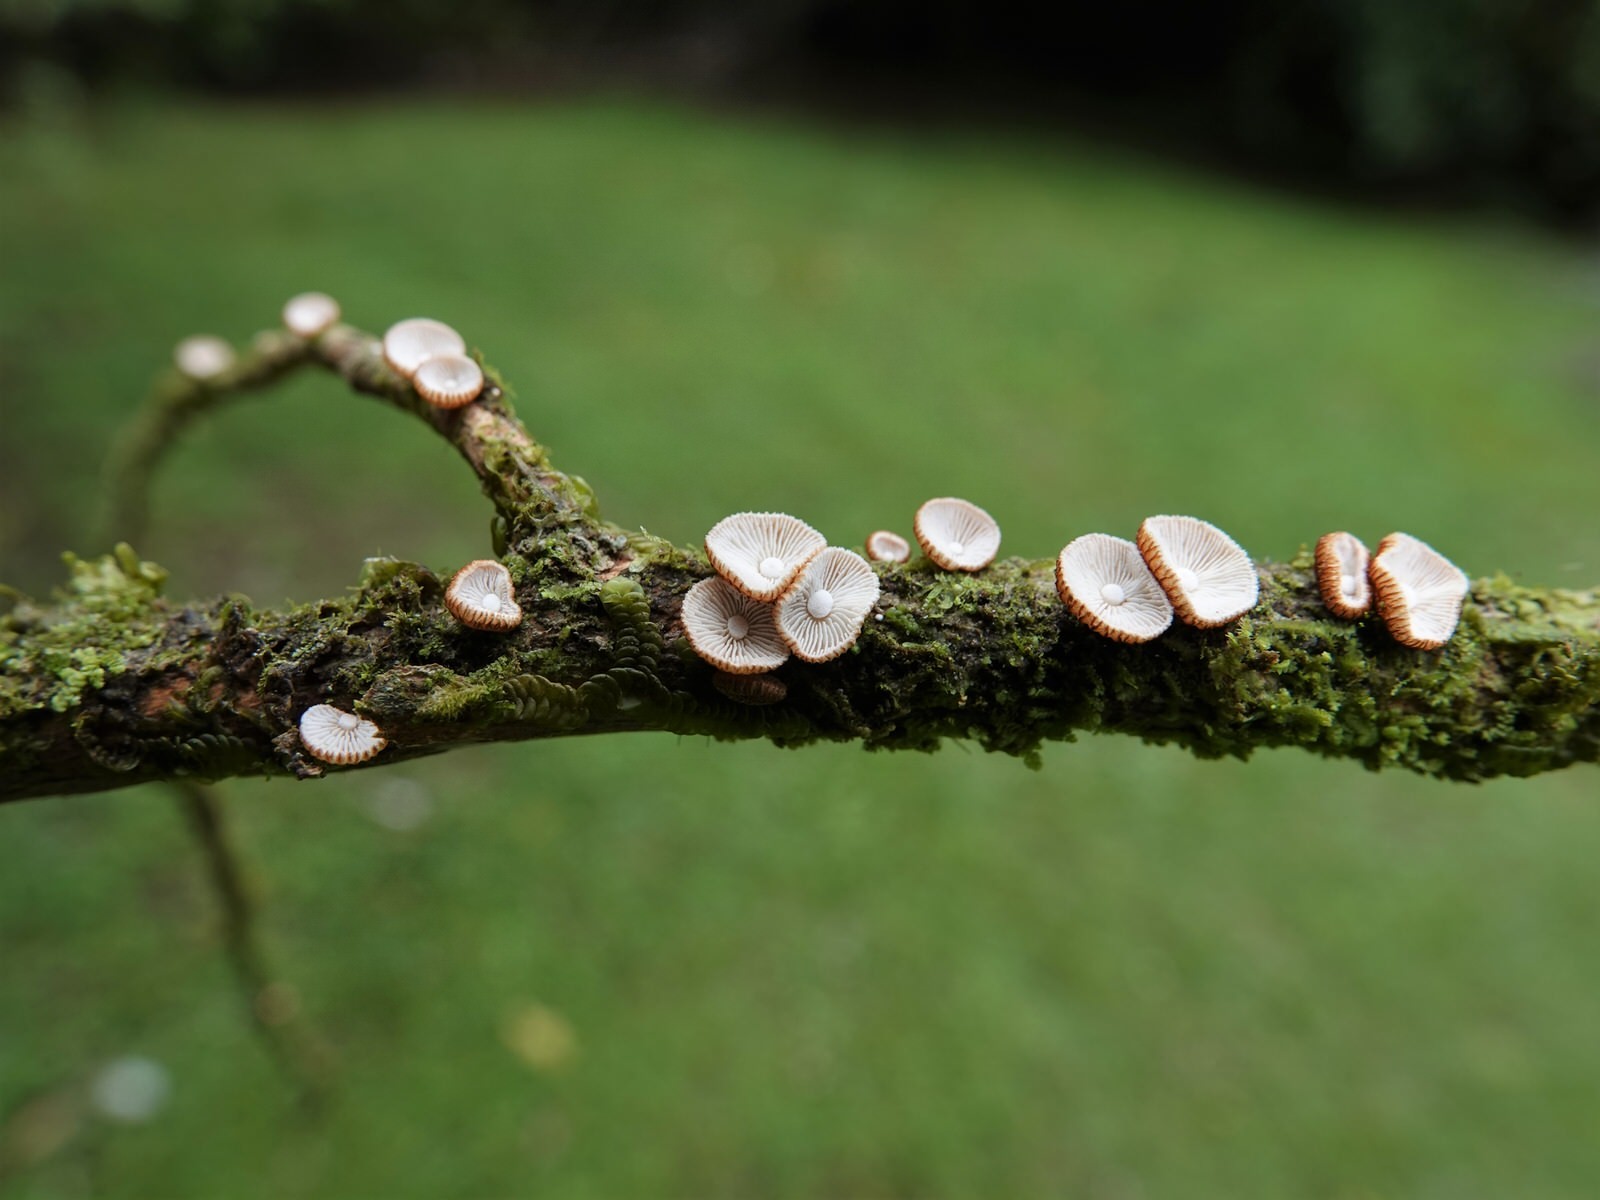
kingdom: Fungi
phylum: Basidiomycota
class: Agaricomycetes
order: Agaricales
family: Marasmiaceae
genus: Chaetocalathus
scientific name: Chaetocalathus cocciformis
